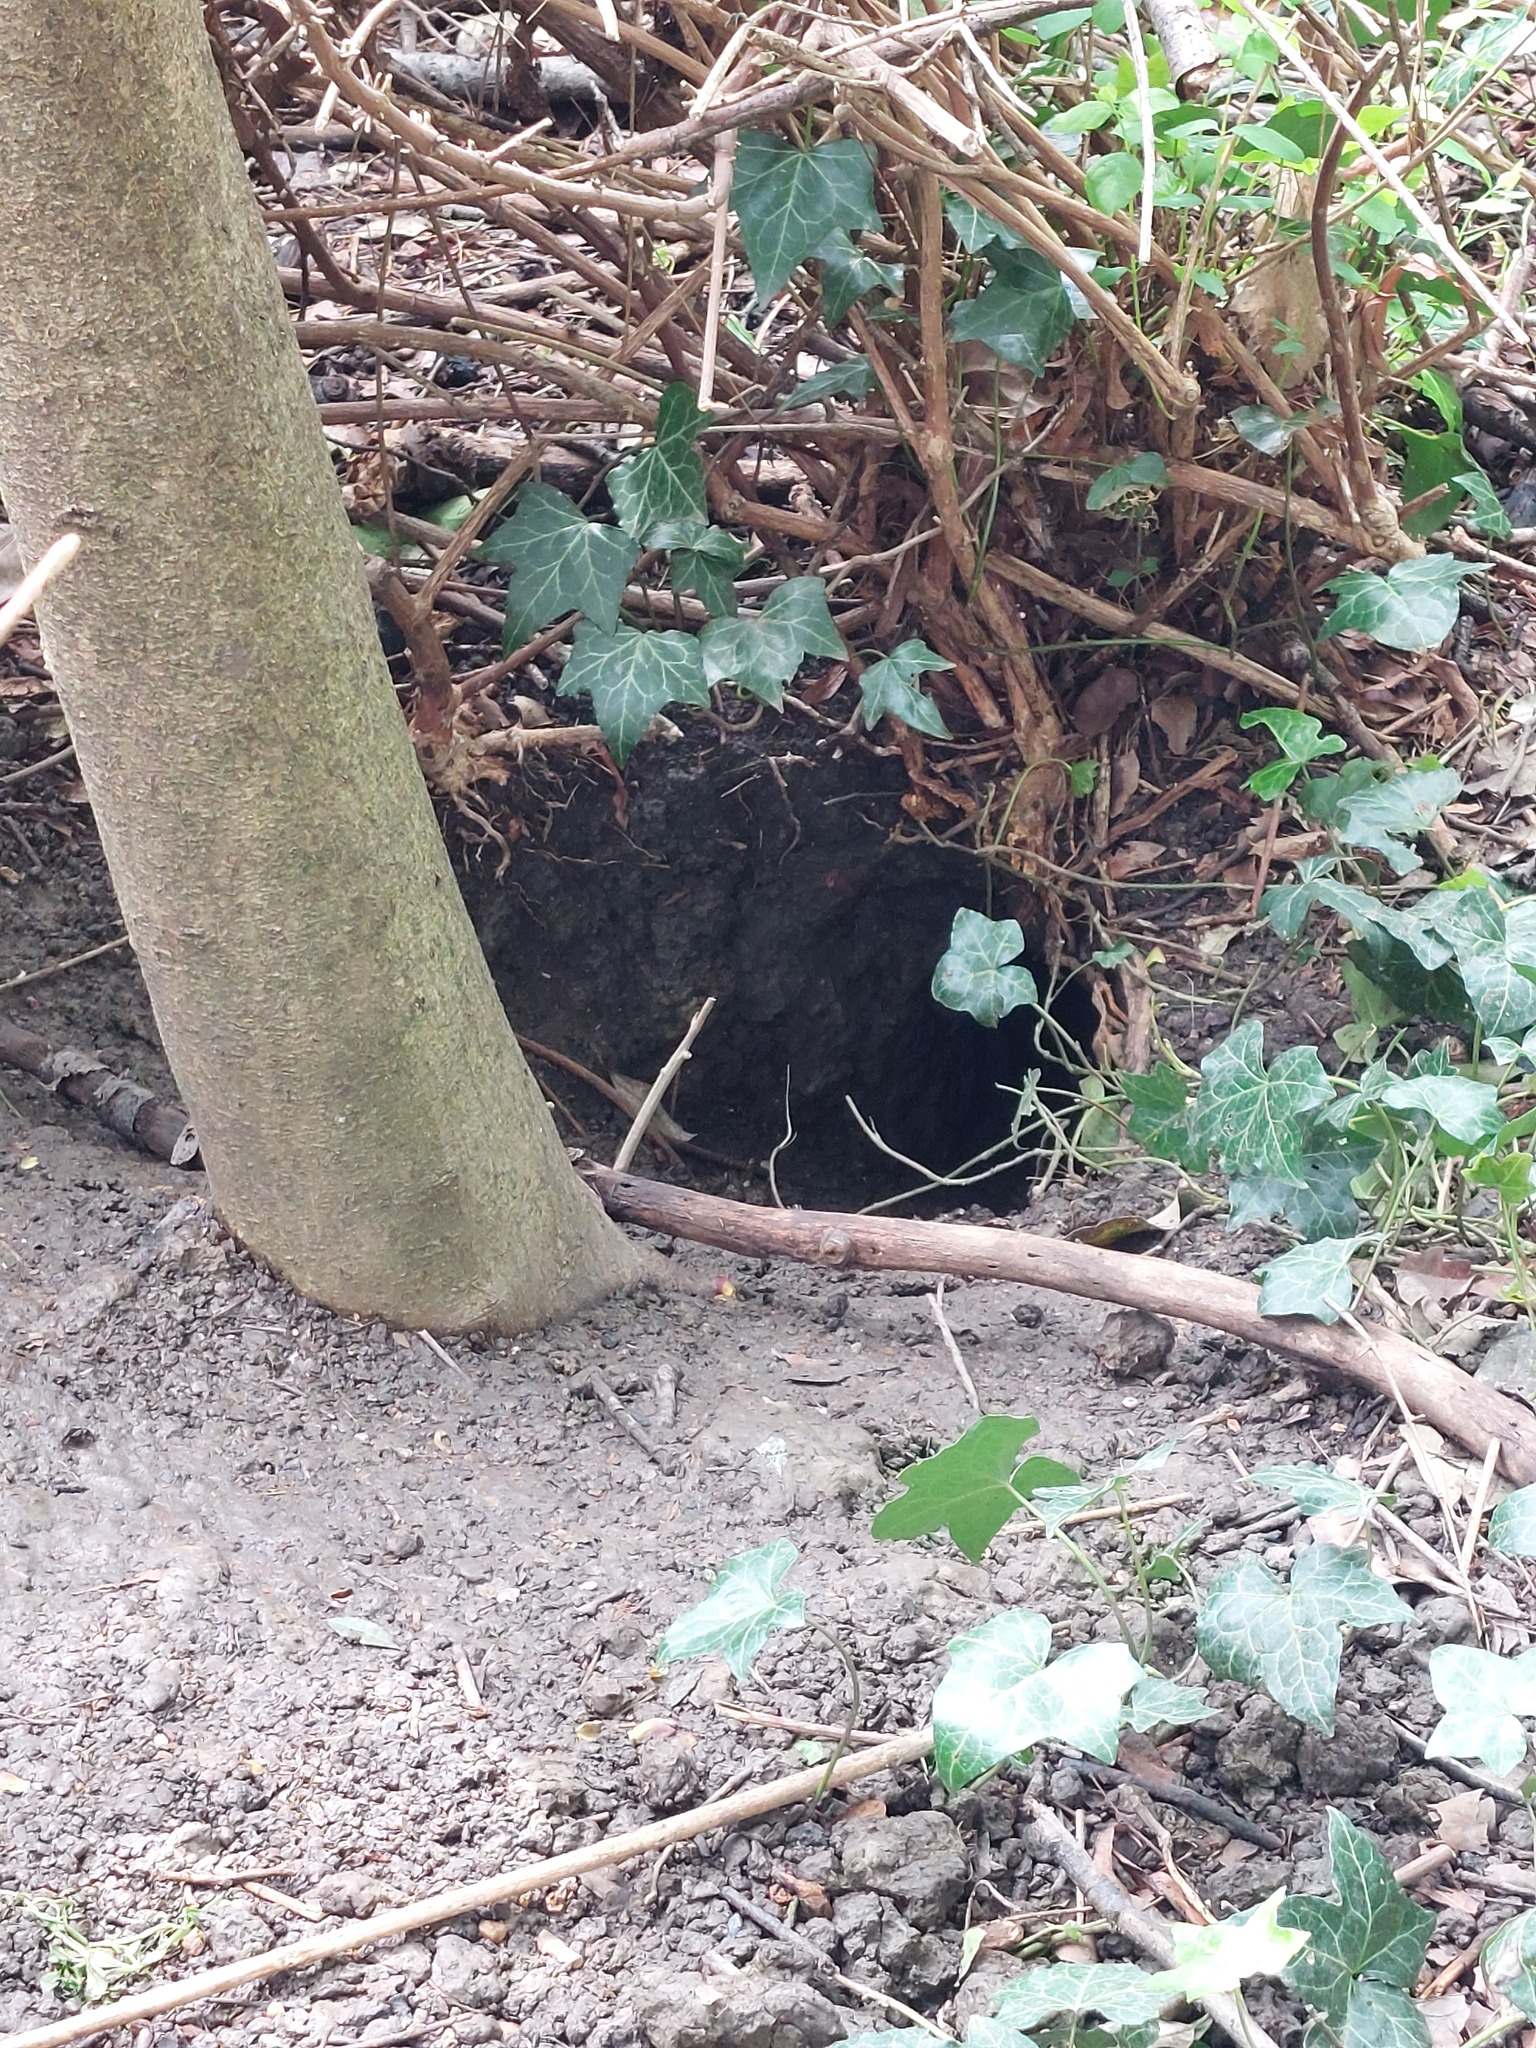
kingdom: Animalia
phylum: Chordata
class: Mammalia
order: Carnivora
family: Canidae
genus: Vulpes
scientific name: Vulpes vulpes
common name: Red fox
